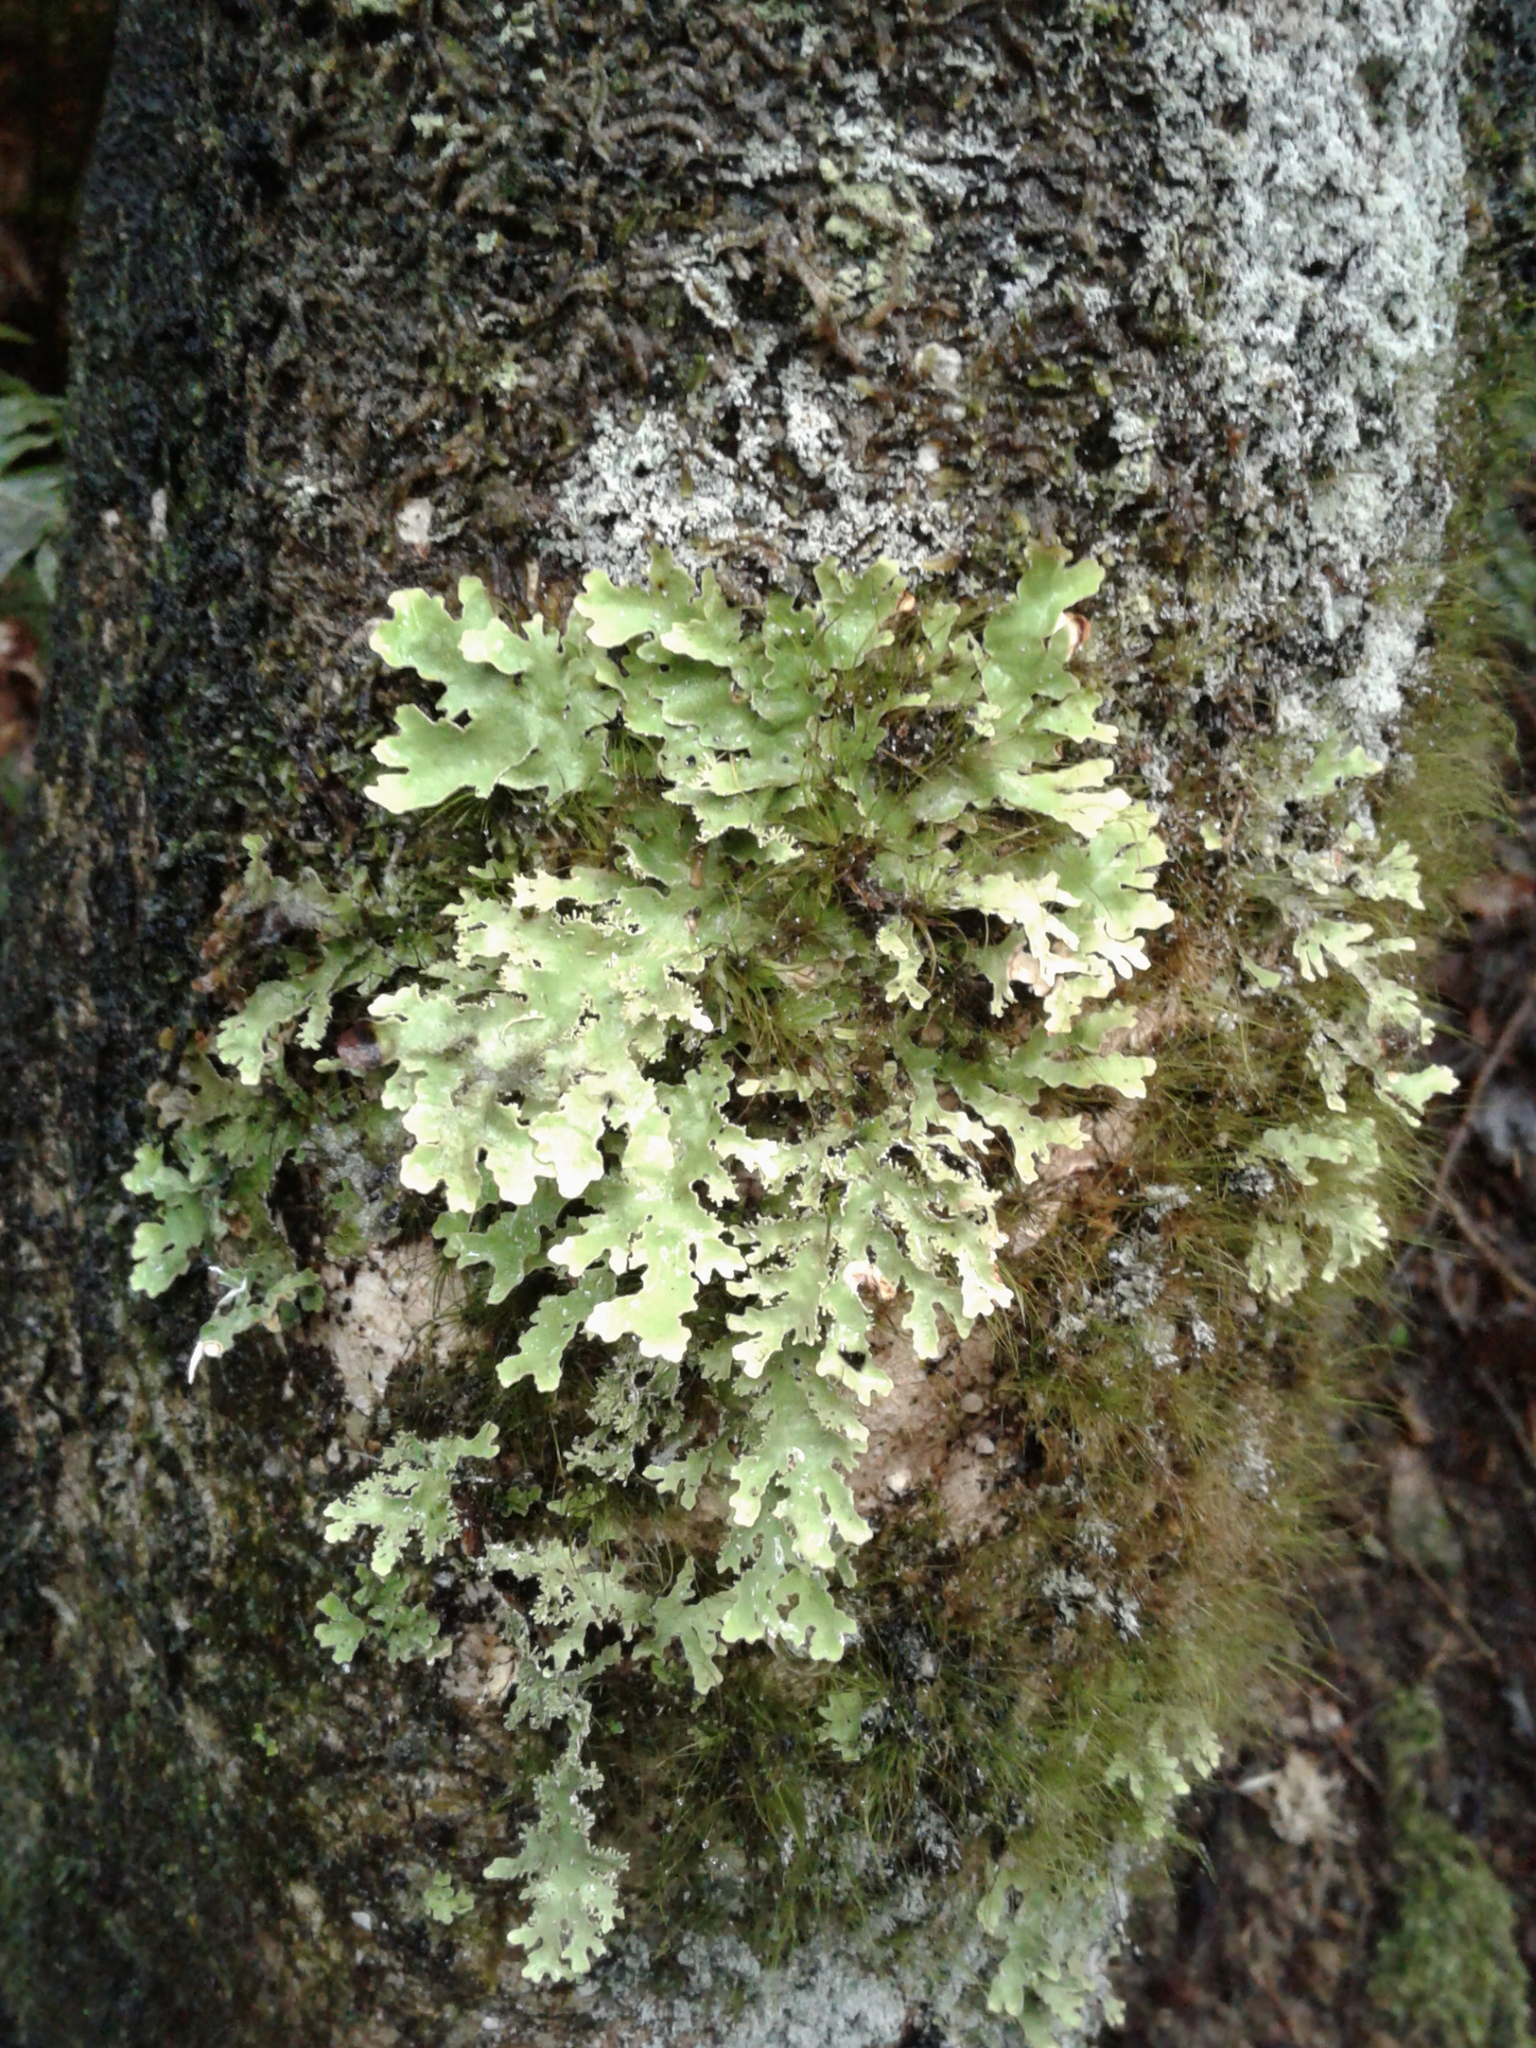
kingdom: Fungi
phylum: Ascomycota
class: Lecanoromycetes
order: Peltigerales
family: Lobariaceae
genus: Pseudocyphellaria
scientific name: Pseudocyphellaria
